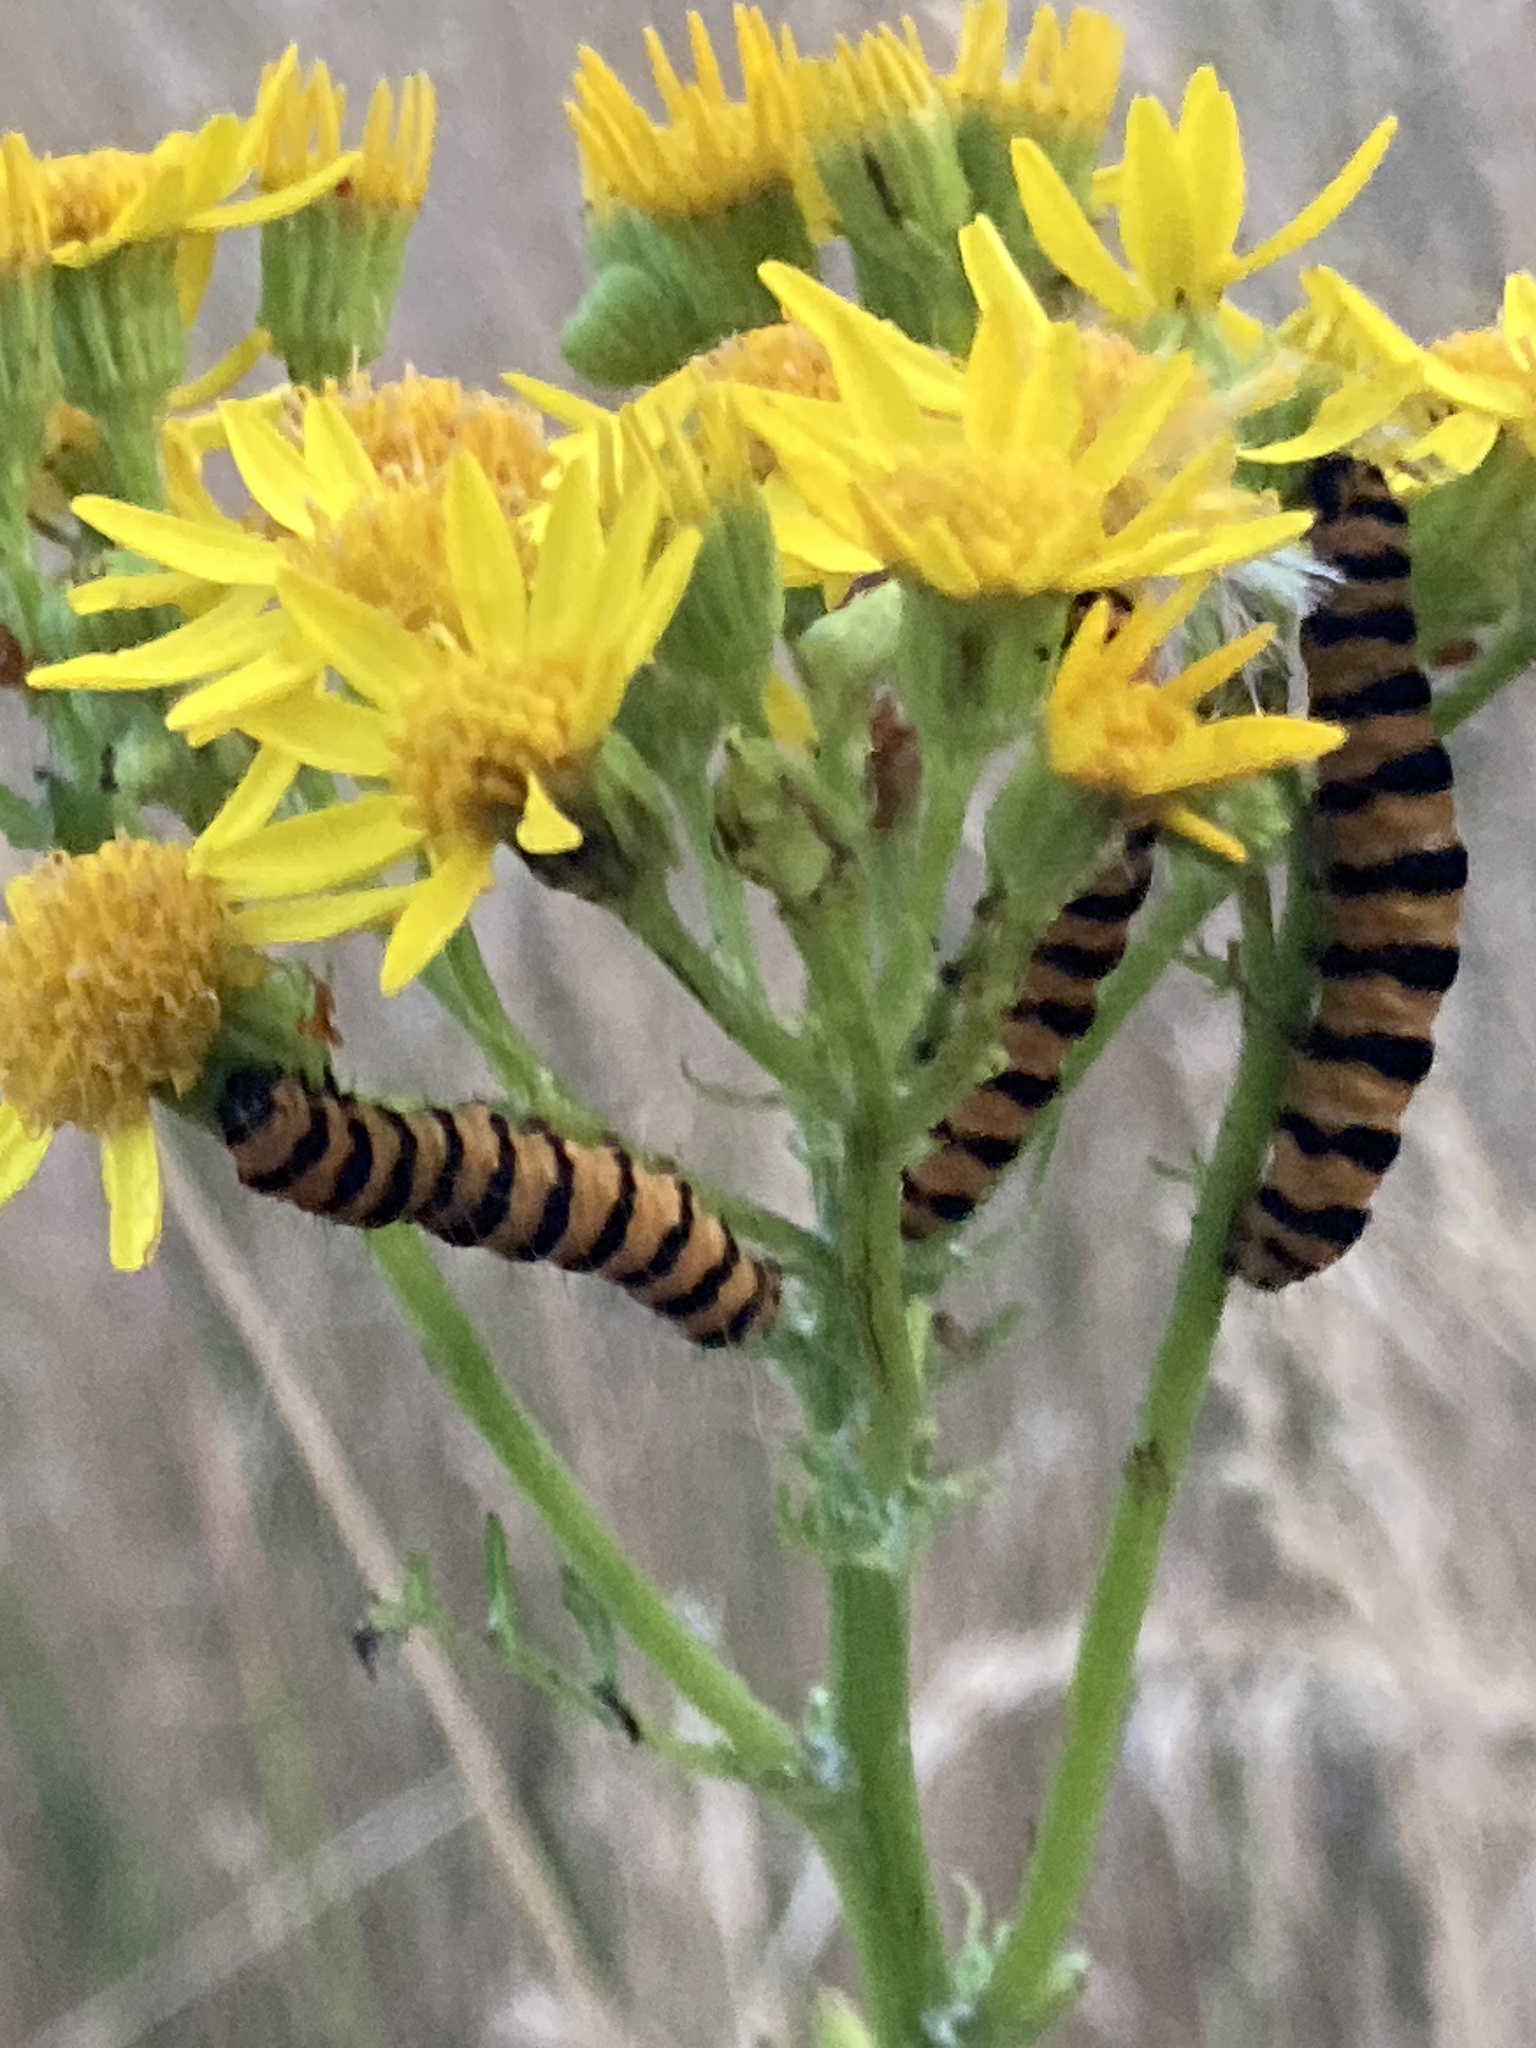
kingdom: Animalia
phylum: Arthropoda
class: Insecta
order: Lepidoptera
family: Erebidae
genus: Tyria
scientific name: Tyria jacobaeae
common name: Cinnabar
